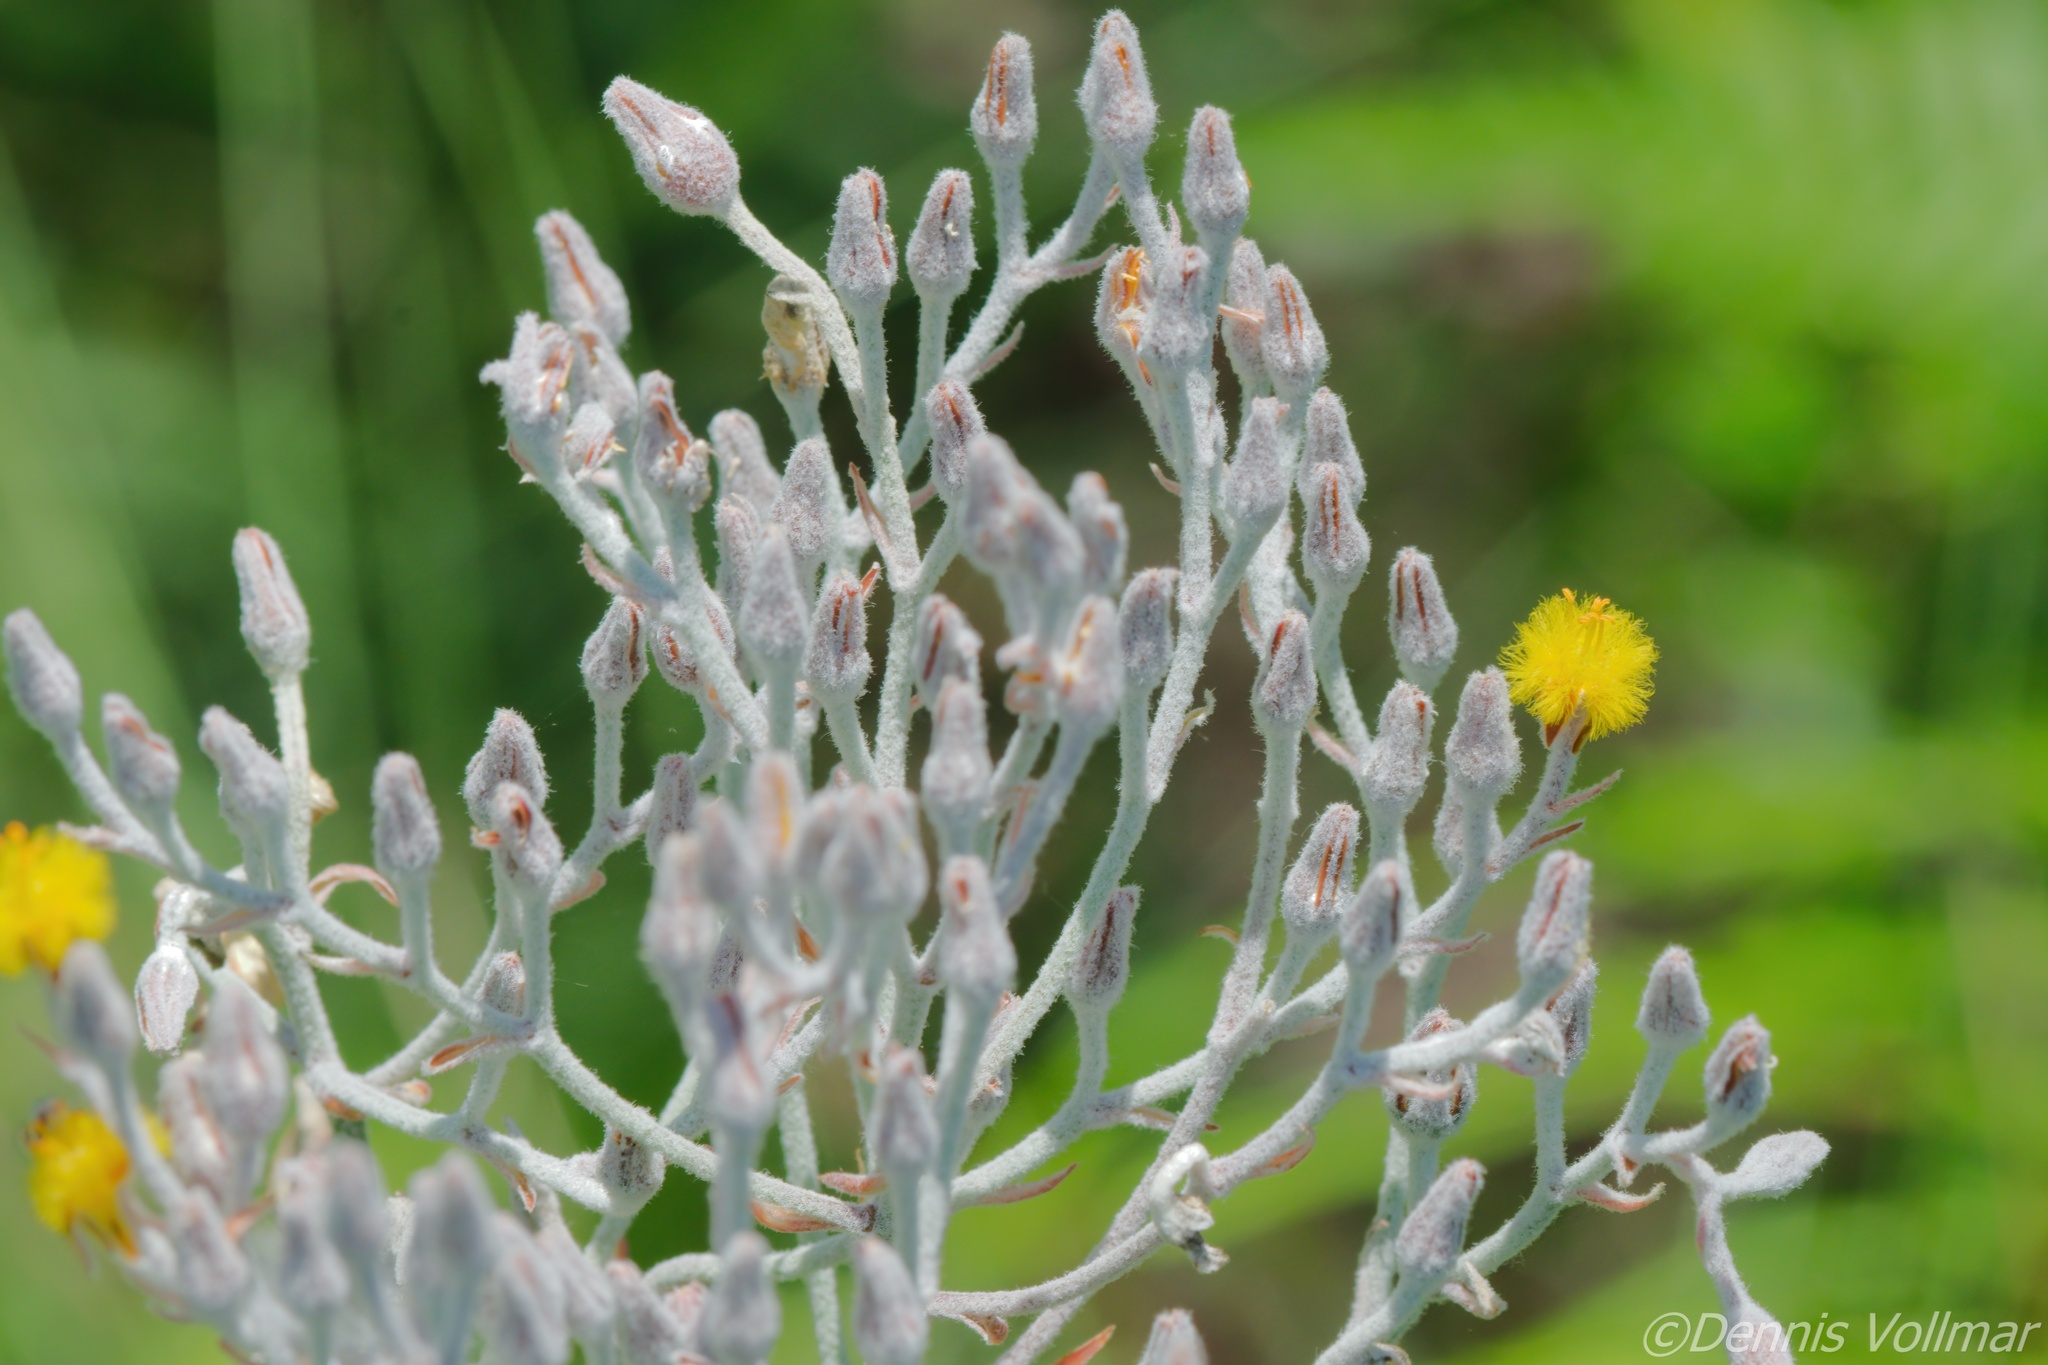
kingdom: Plantae
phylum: Tracheophyta
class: Liliopsida
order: Dioscoreales
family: Nartheciaceae
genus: Lophiola
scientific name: Lophiola aurea
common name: Golden-crest
